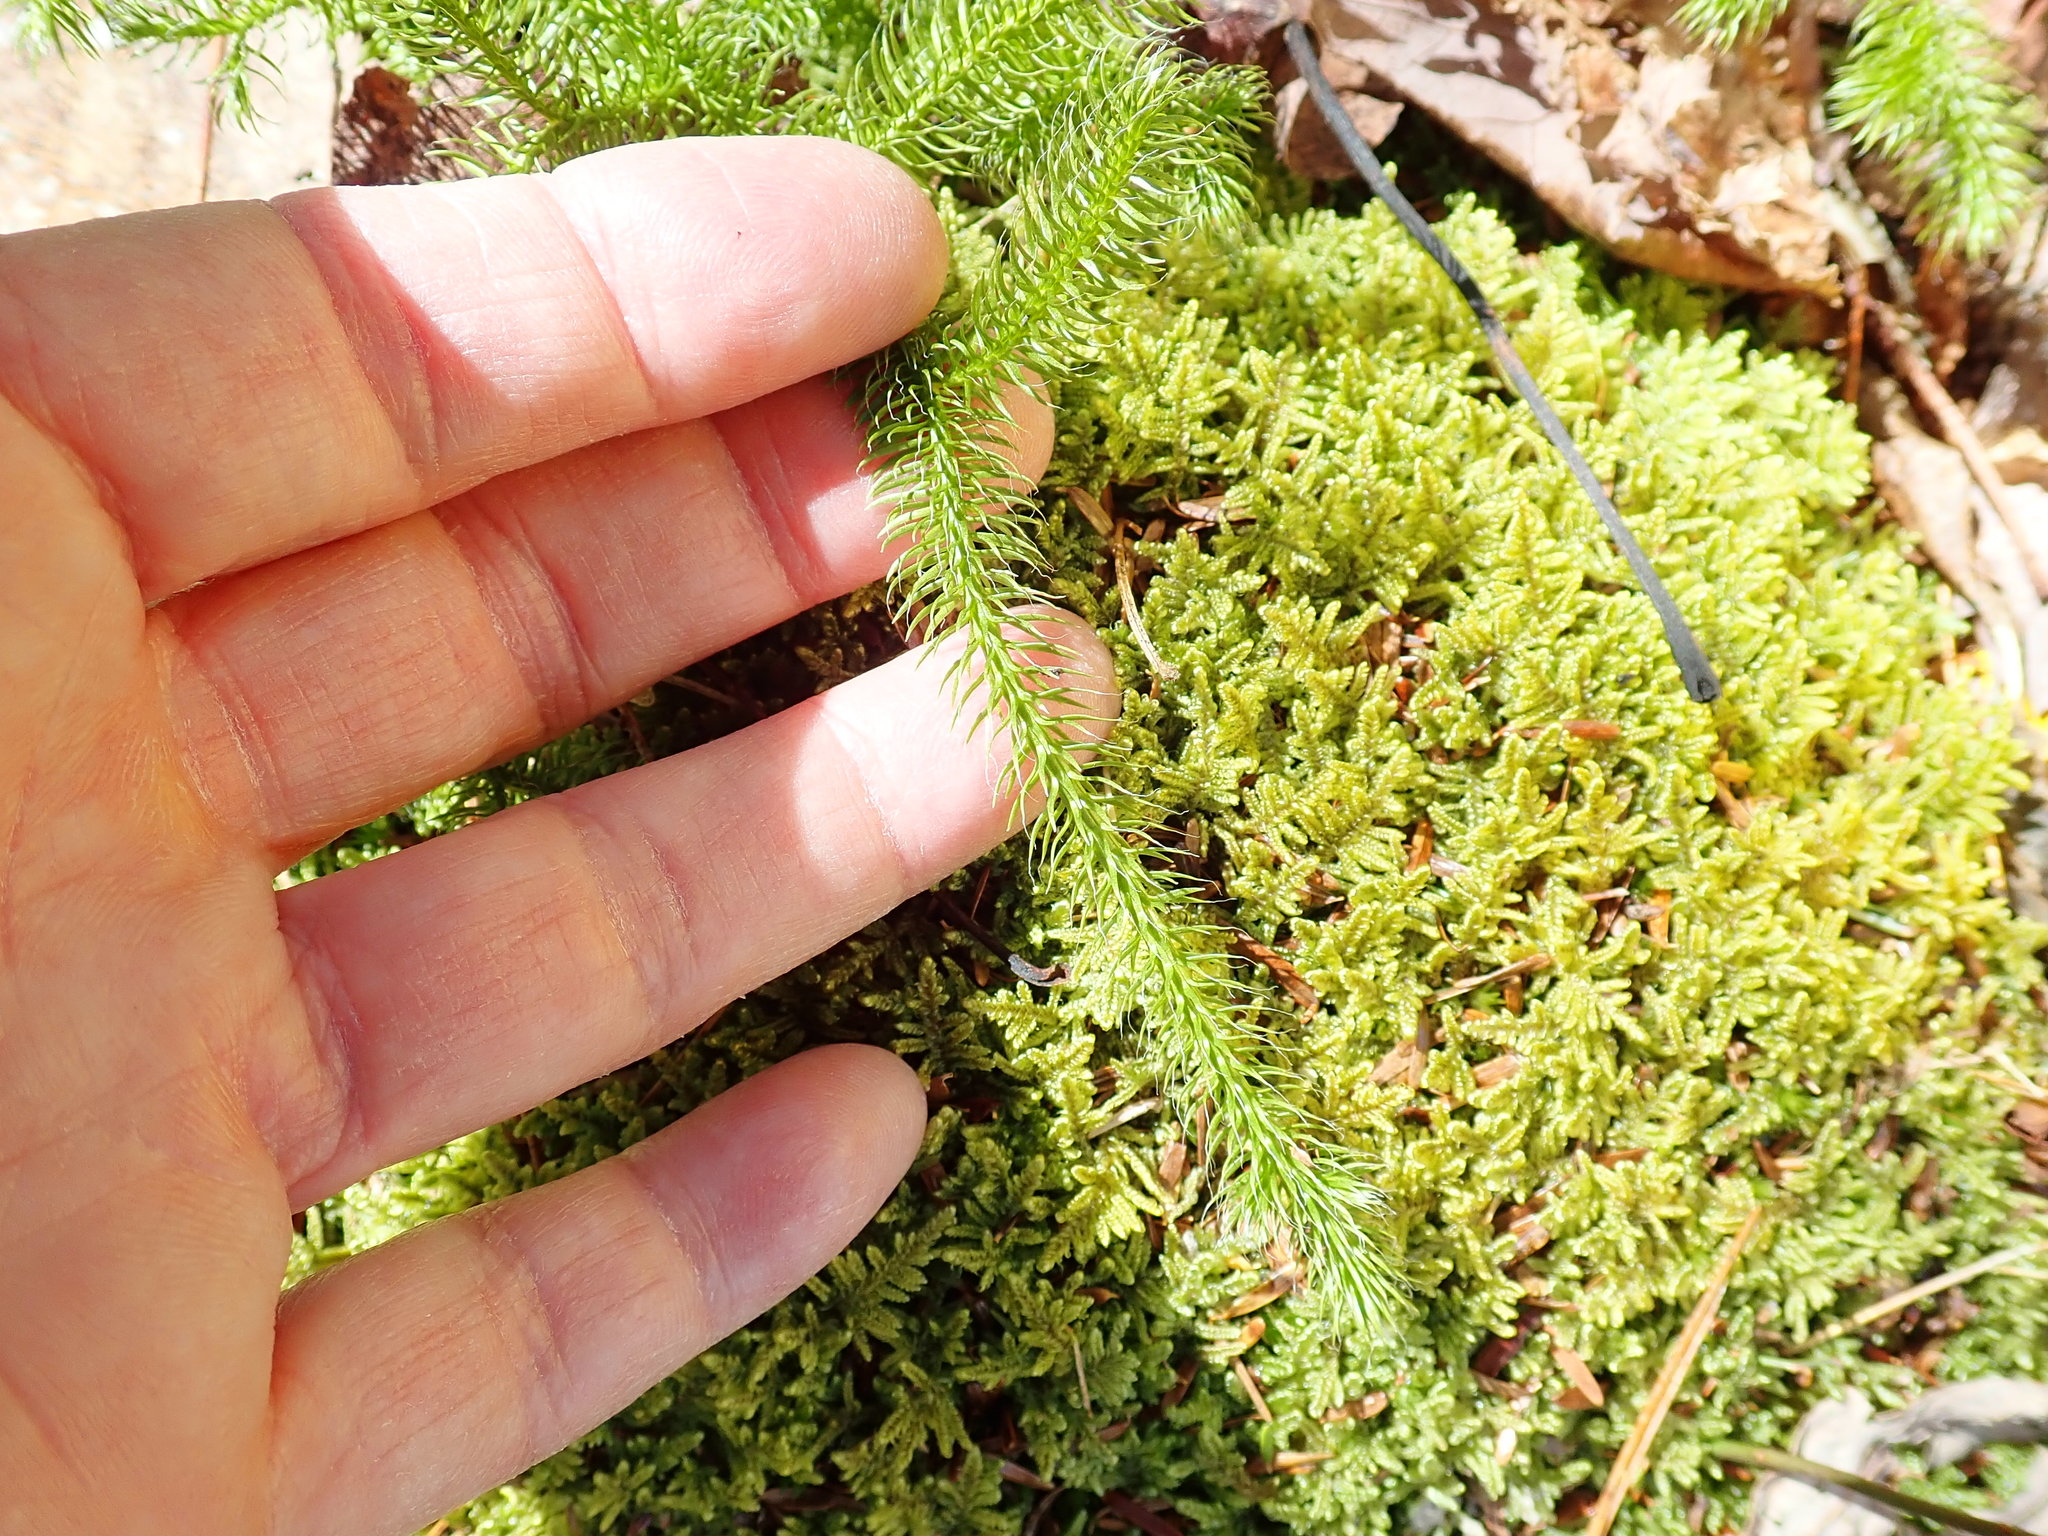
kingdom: Plantae
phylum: Tracheophyta
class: Lycopodiopsida
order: Lycopodiales
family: Lycopodiaceae
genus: Lycopodium
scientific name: Lycopodium clavatum
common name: Stag's-horn clubmoss
